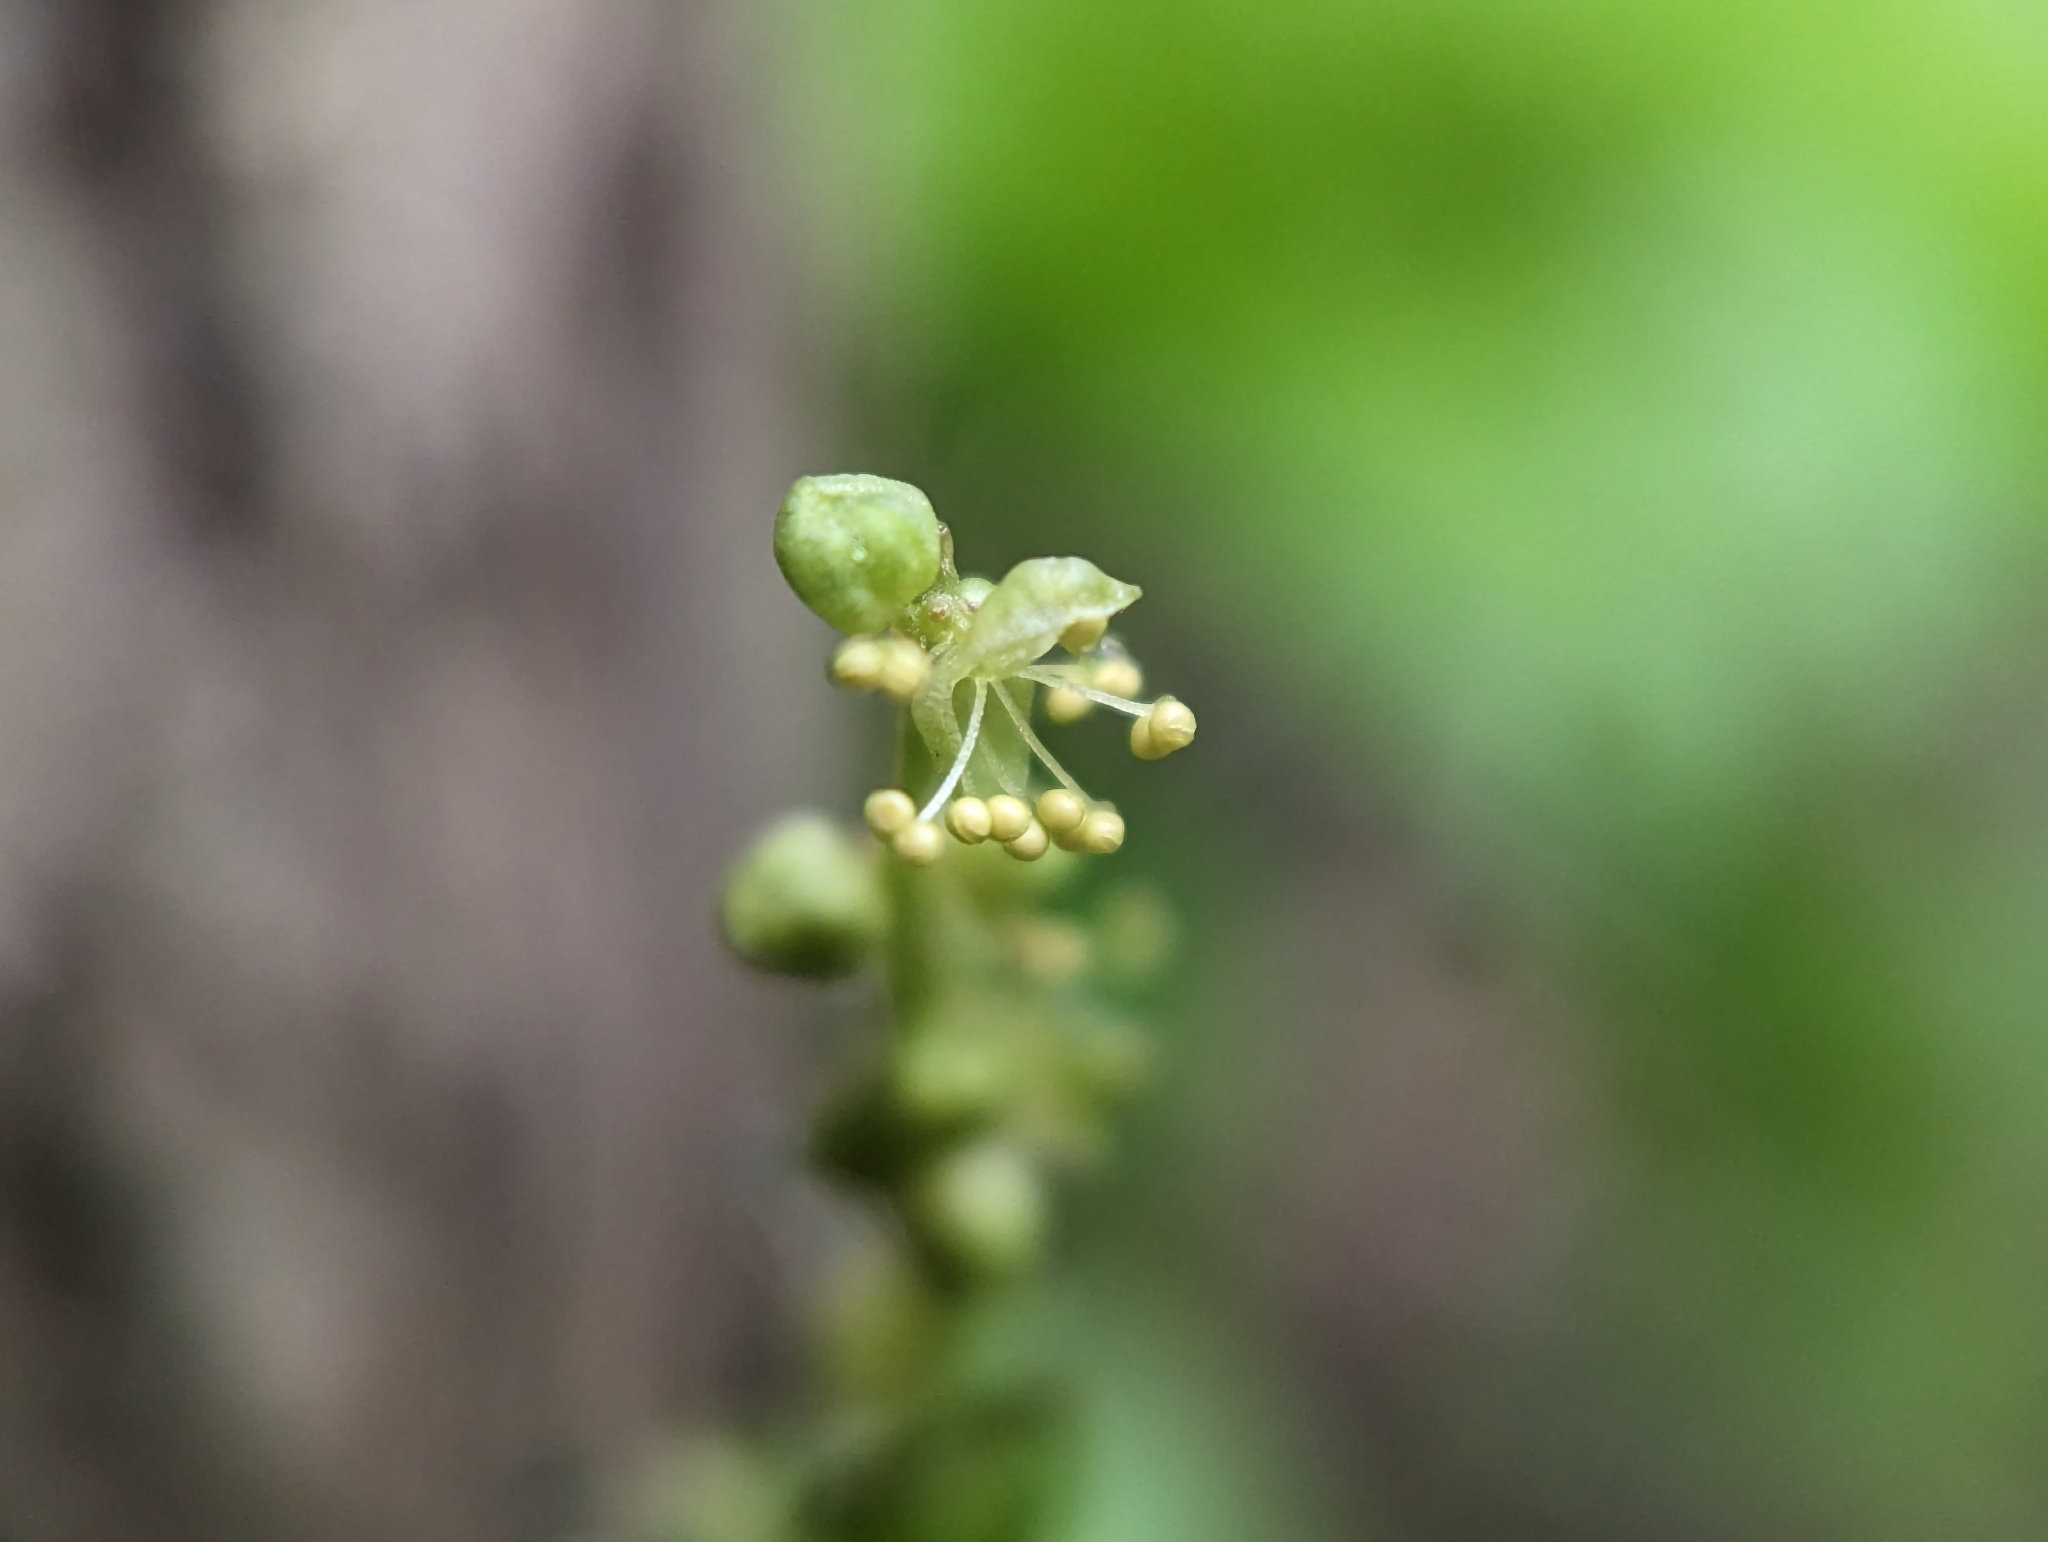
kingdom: Plantae
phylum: Tracheophyta
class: Magnoliopsida
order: Malpighiales
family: Euphorbiaceae
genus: Mercurialis
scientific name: Mercurialis perennis
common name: Dog mercury
